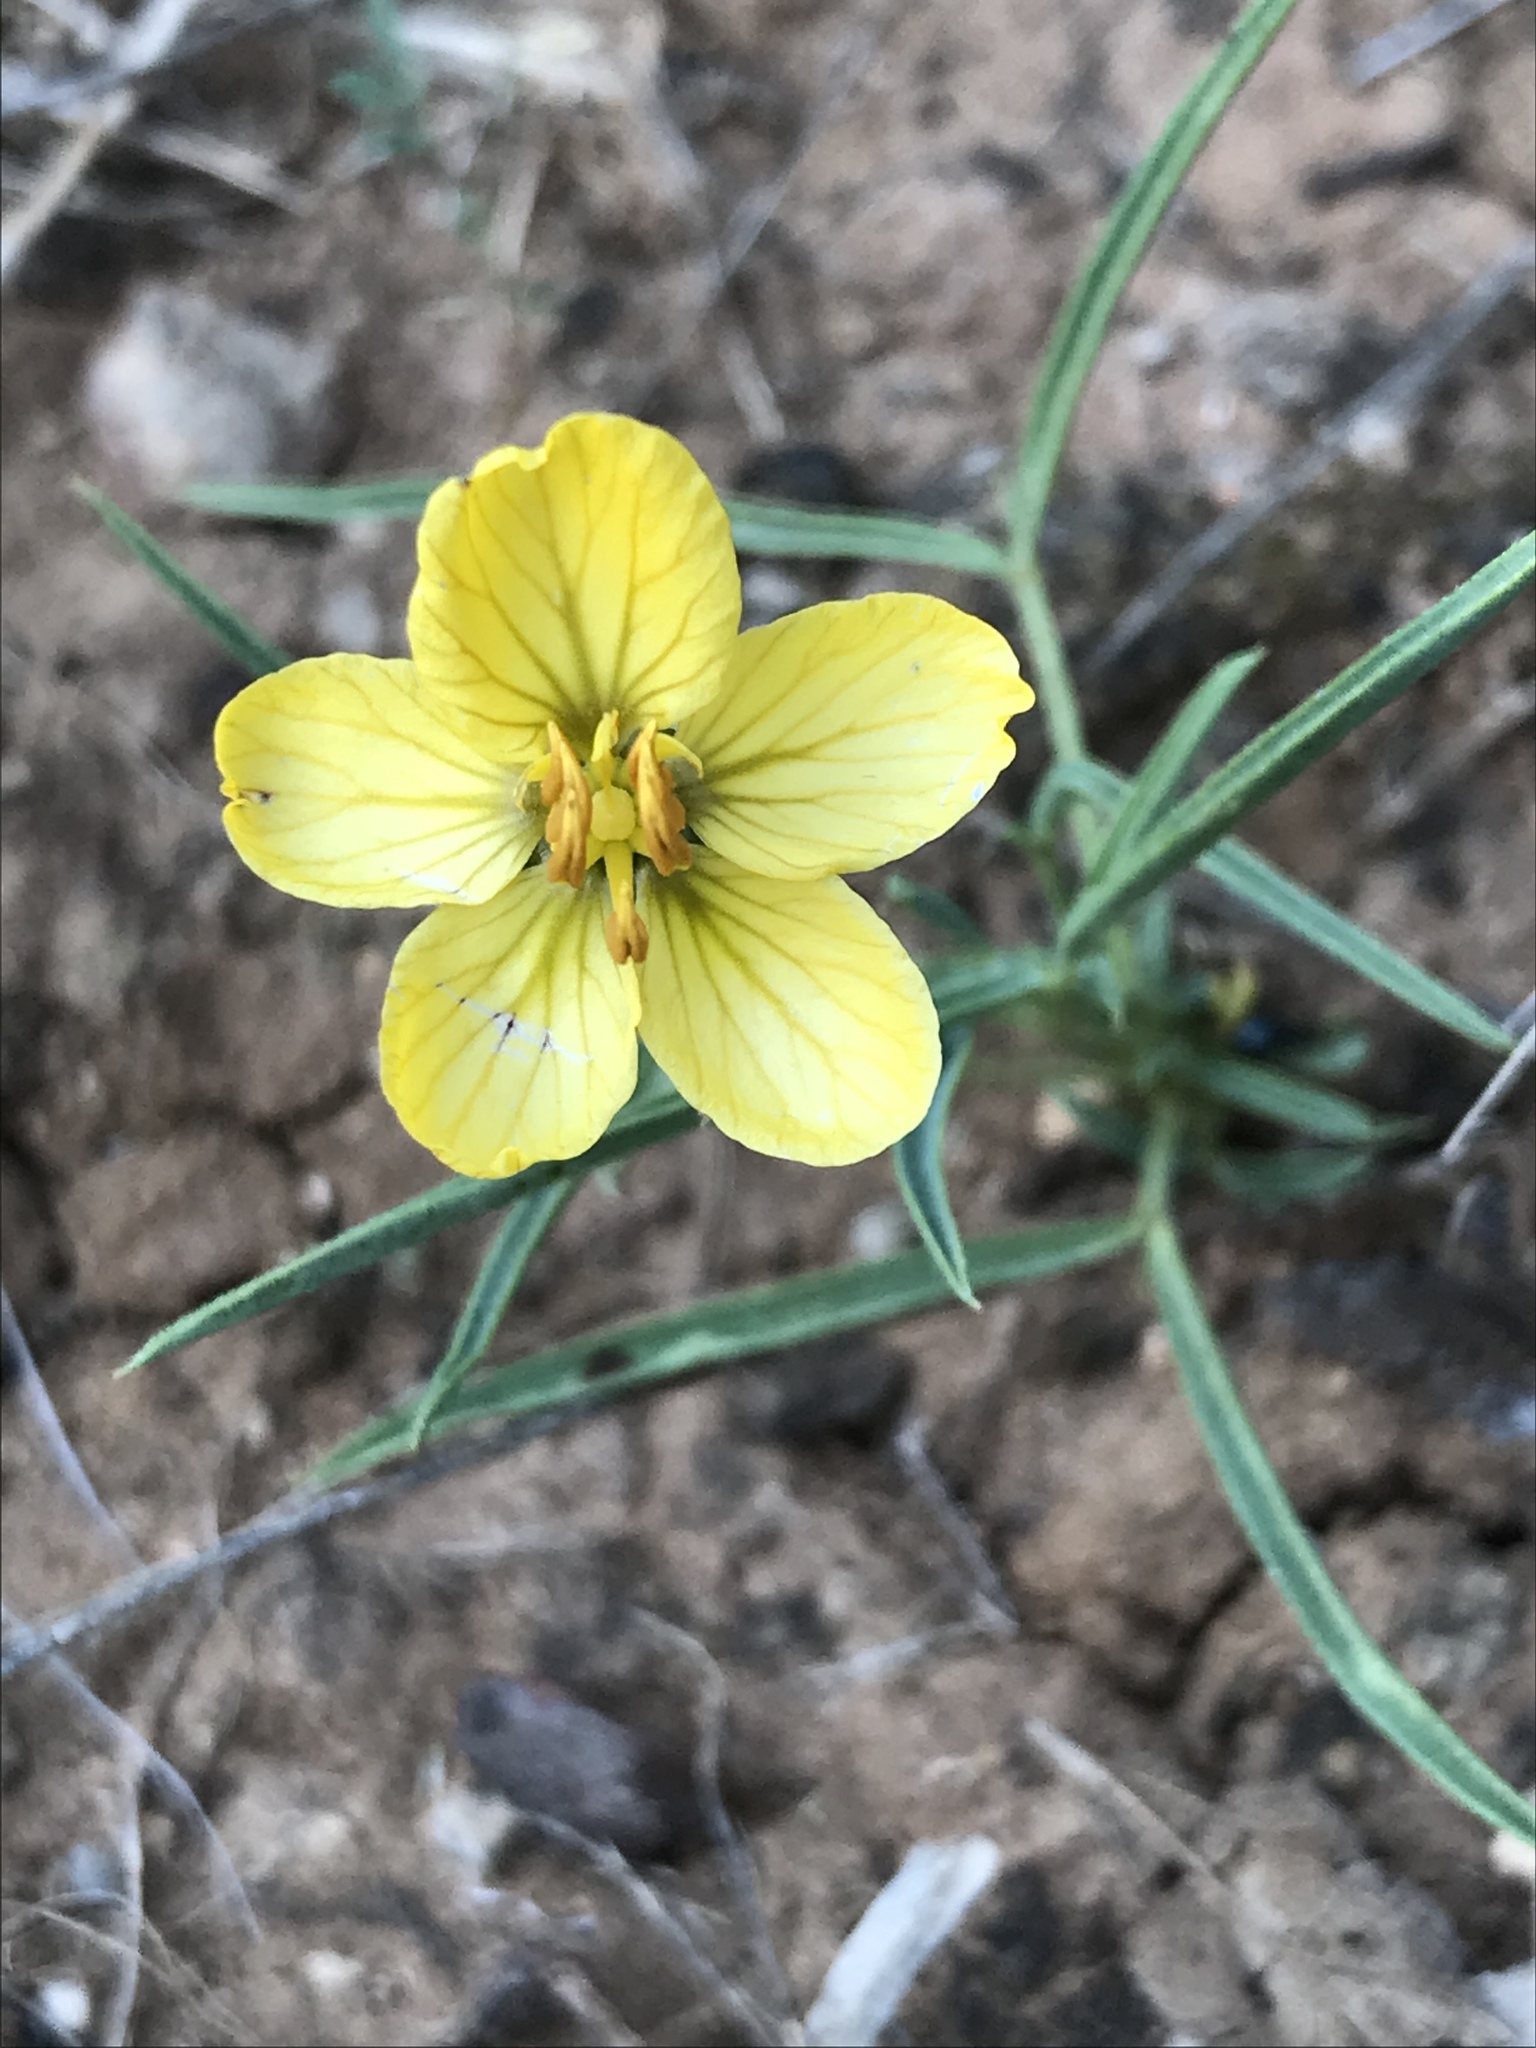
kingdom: Plantae
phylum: Tracheophyta
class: Magnoliopsida
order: Fabales
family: Fabaceae
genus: Senna
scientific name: Senna pumilio
